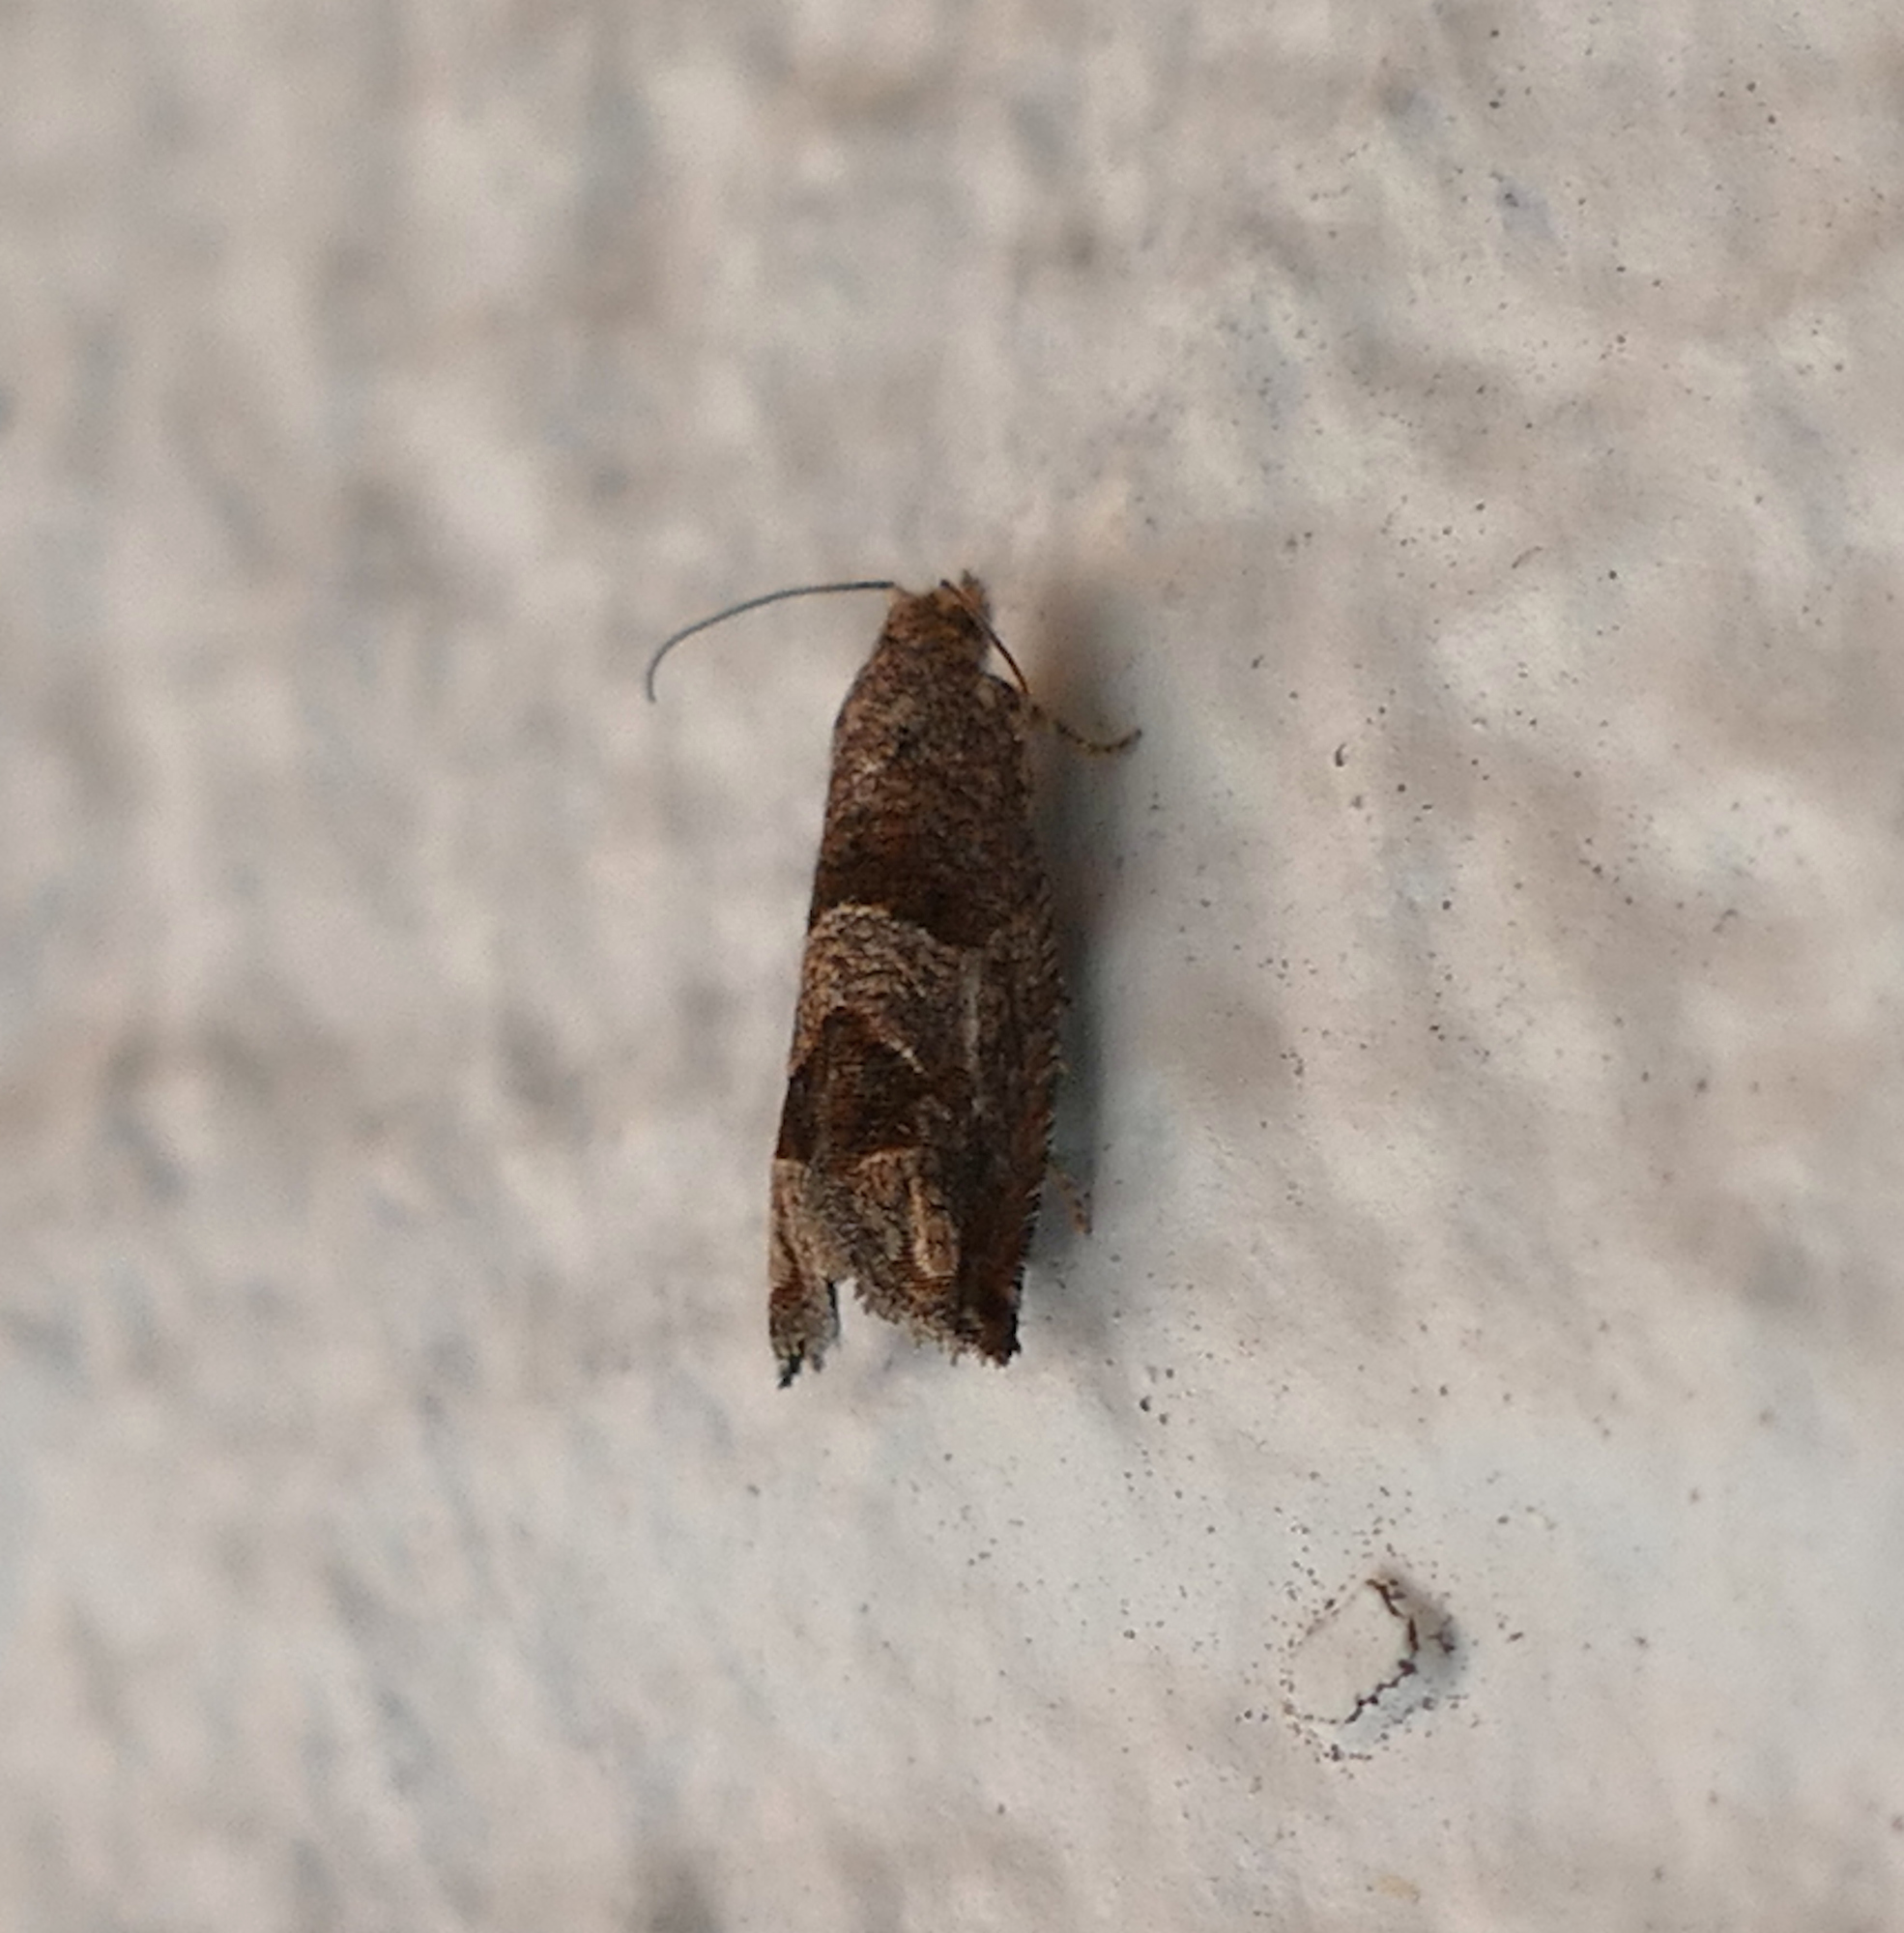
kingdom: Animalia
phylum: Arthropoda
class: Insecta
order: Lepidoptera
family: Tortricidae
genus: Sonia
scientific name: Sonia constrictana
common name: Constricted sonia moth
